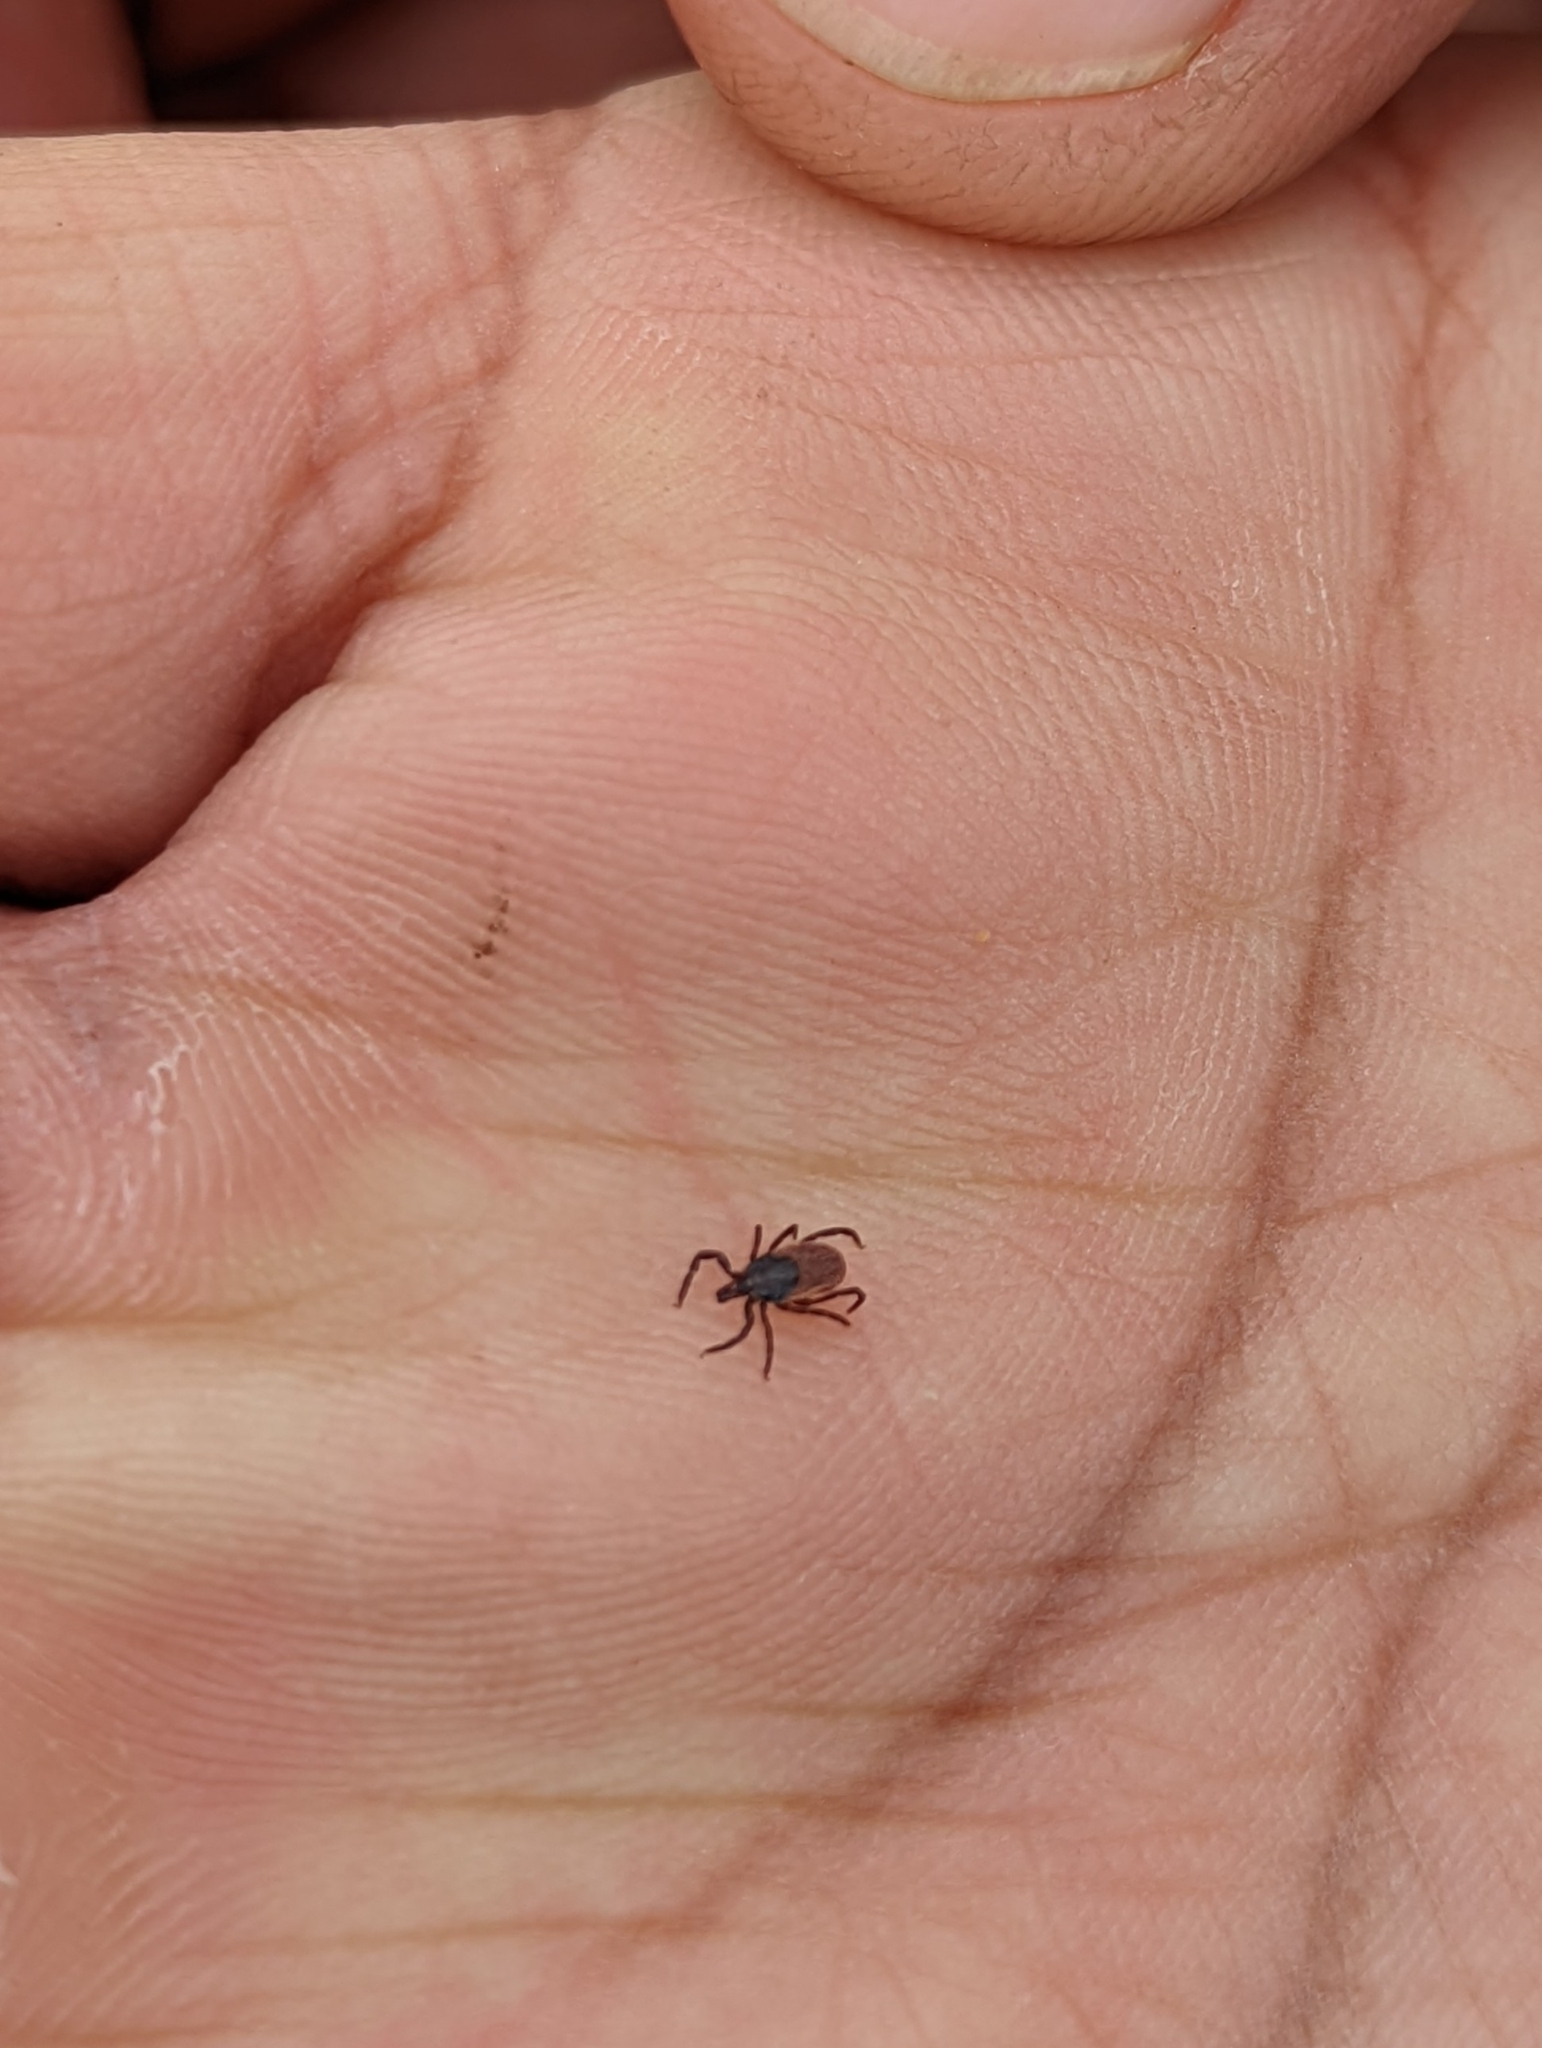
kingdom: Animalia
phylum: Arthropoda
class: Arachnida
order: Ixodida
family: Ixodidae
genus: Ixodes
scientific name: Ixodes pacificus
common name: California black-legged tick
